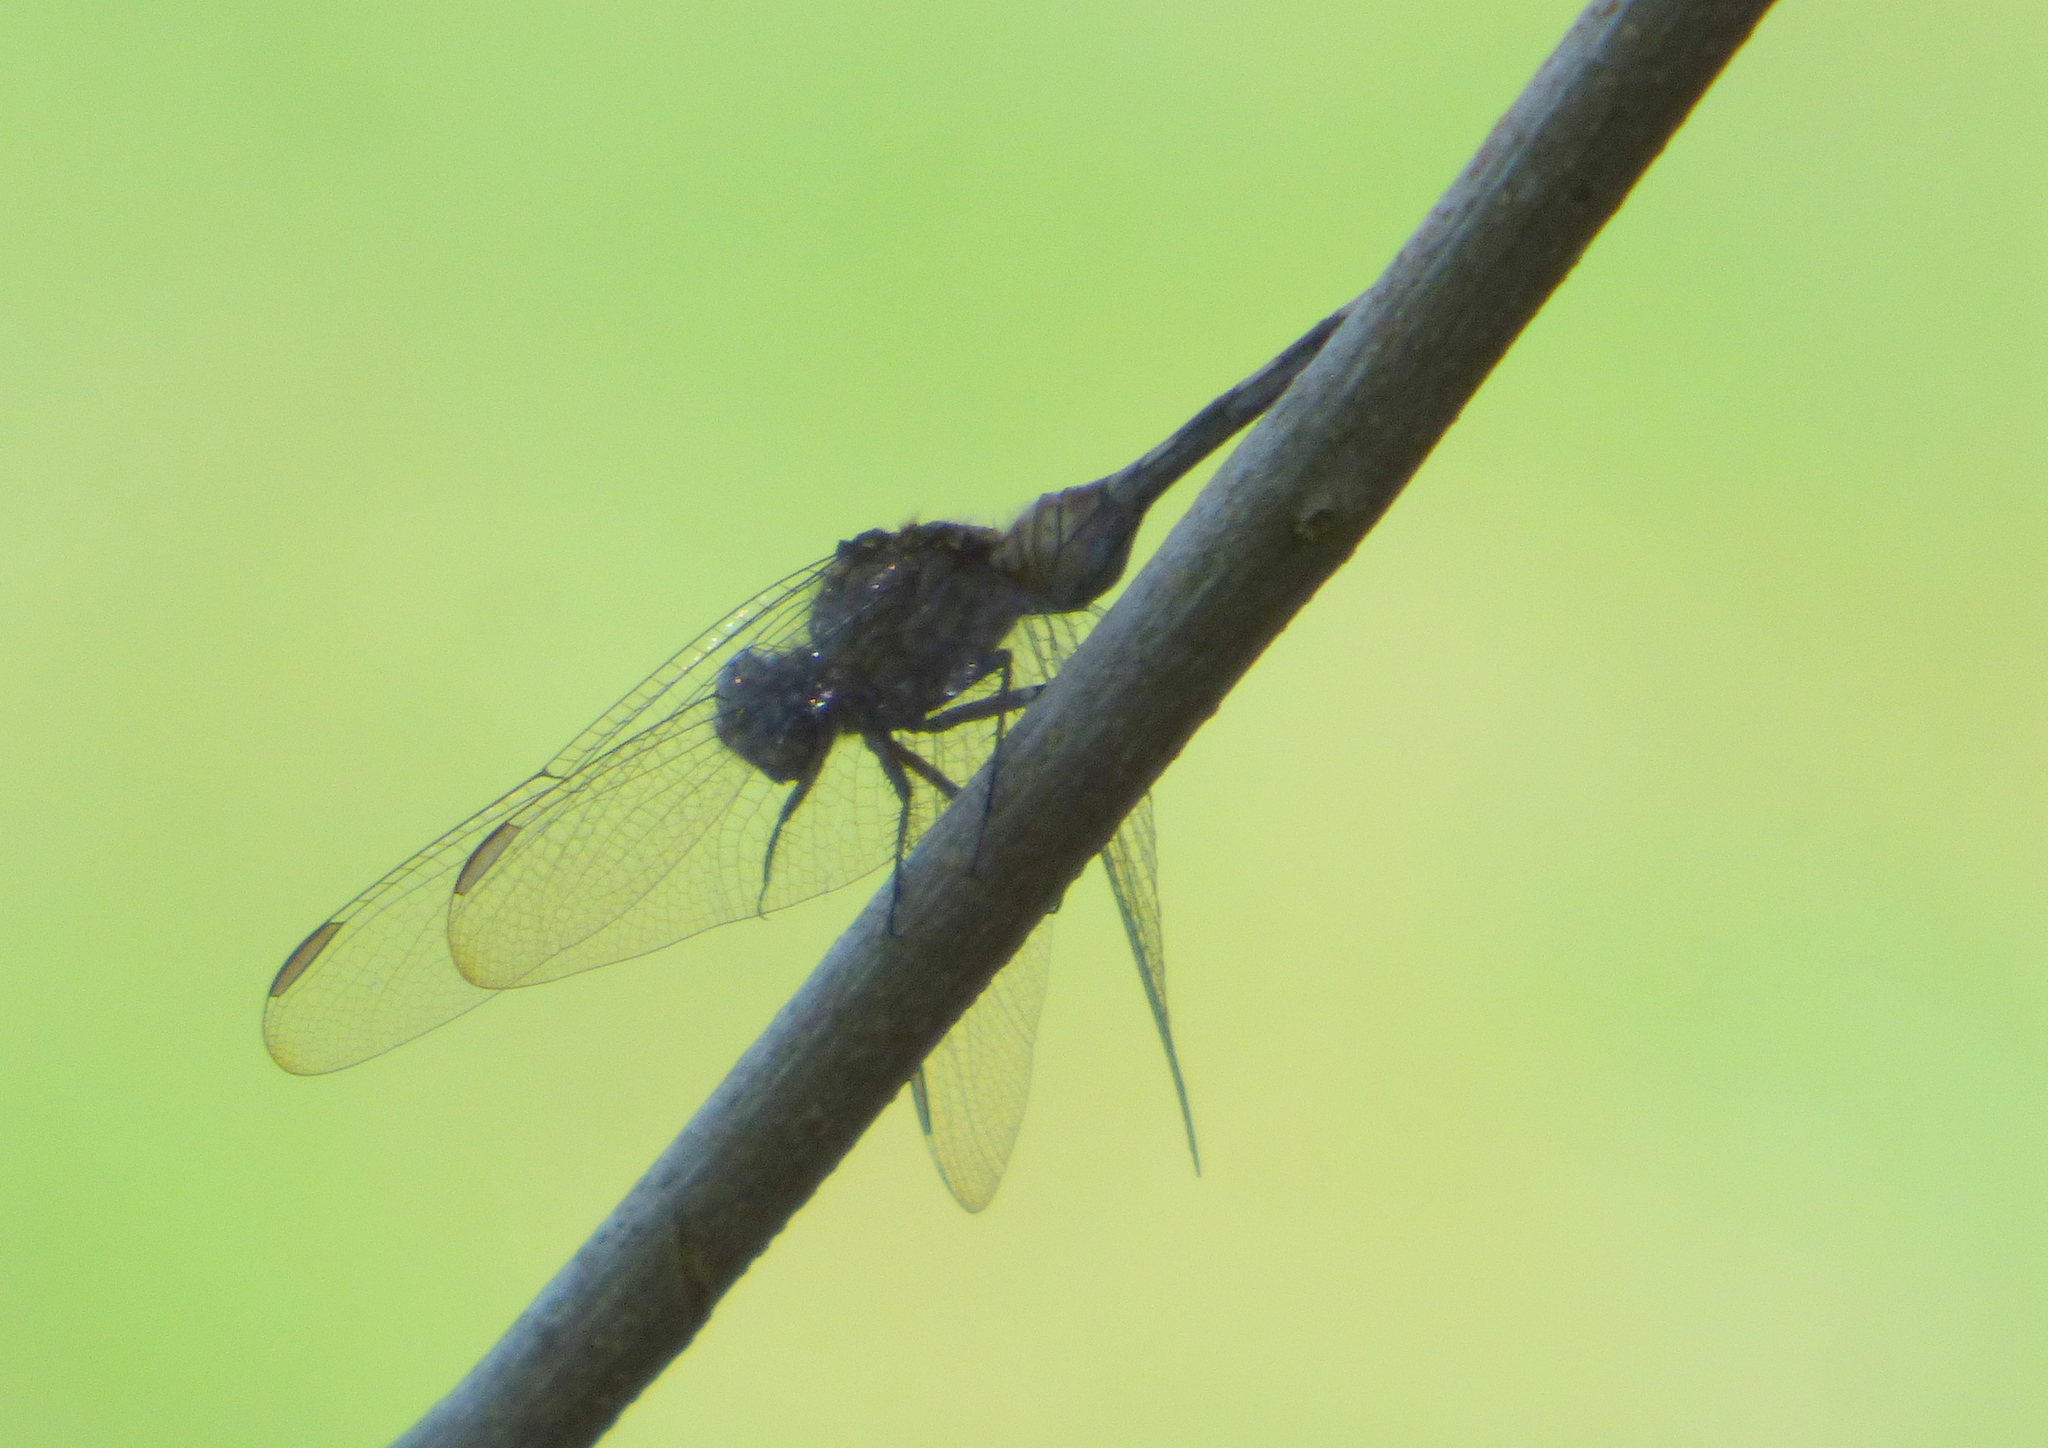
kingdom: Animalia
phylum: Arthropoda
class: Insecta
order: Odonata
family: Libellulidae
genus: Erythemis
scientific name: Erythemis plebeja
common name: Pin-tailed pondhawk
